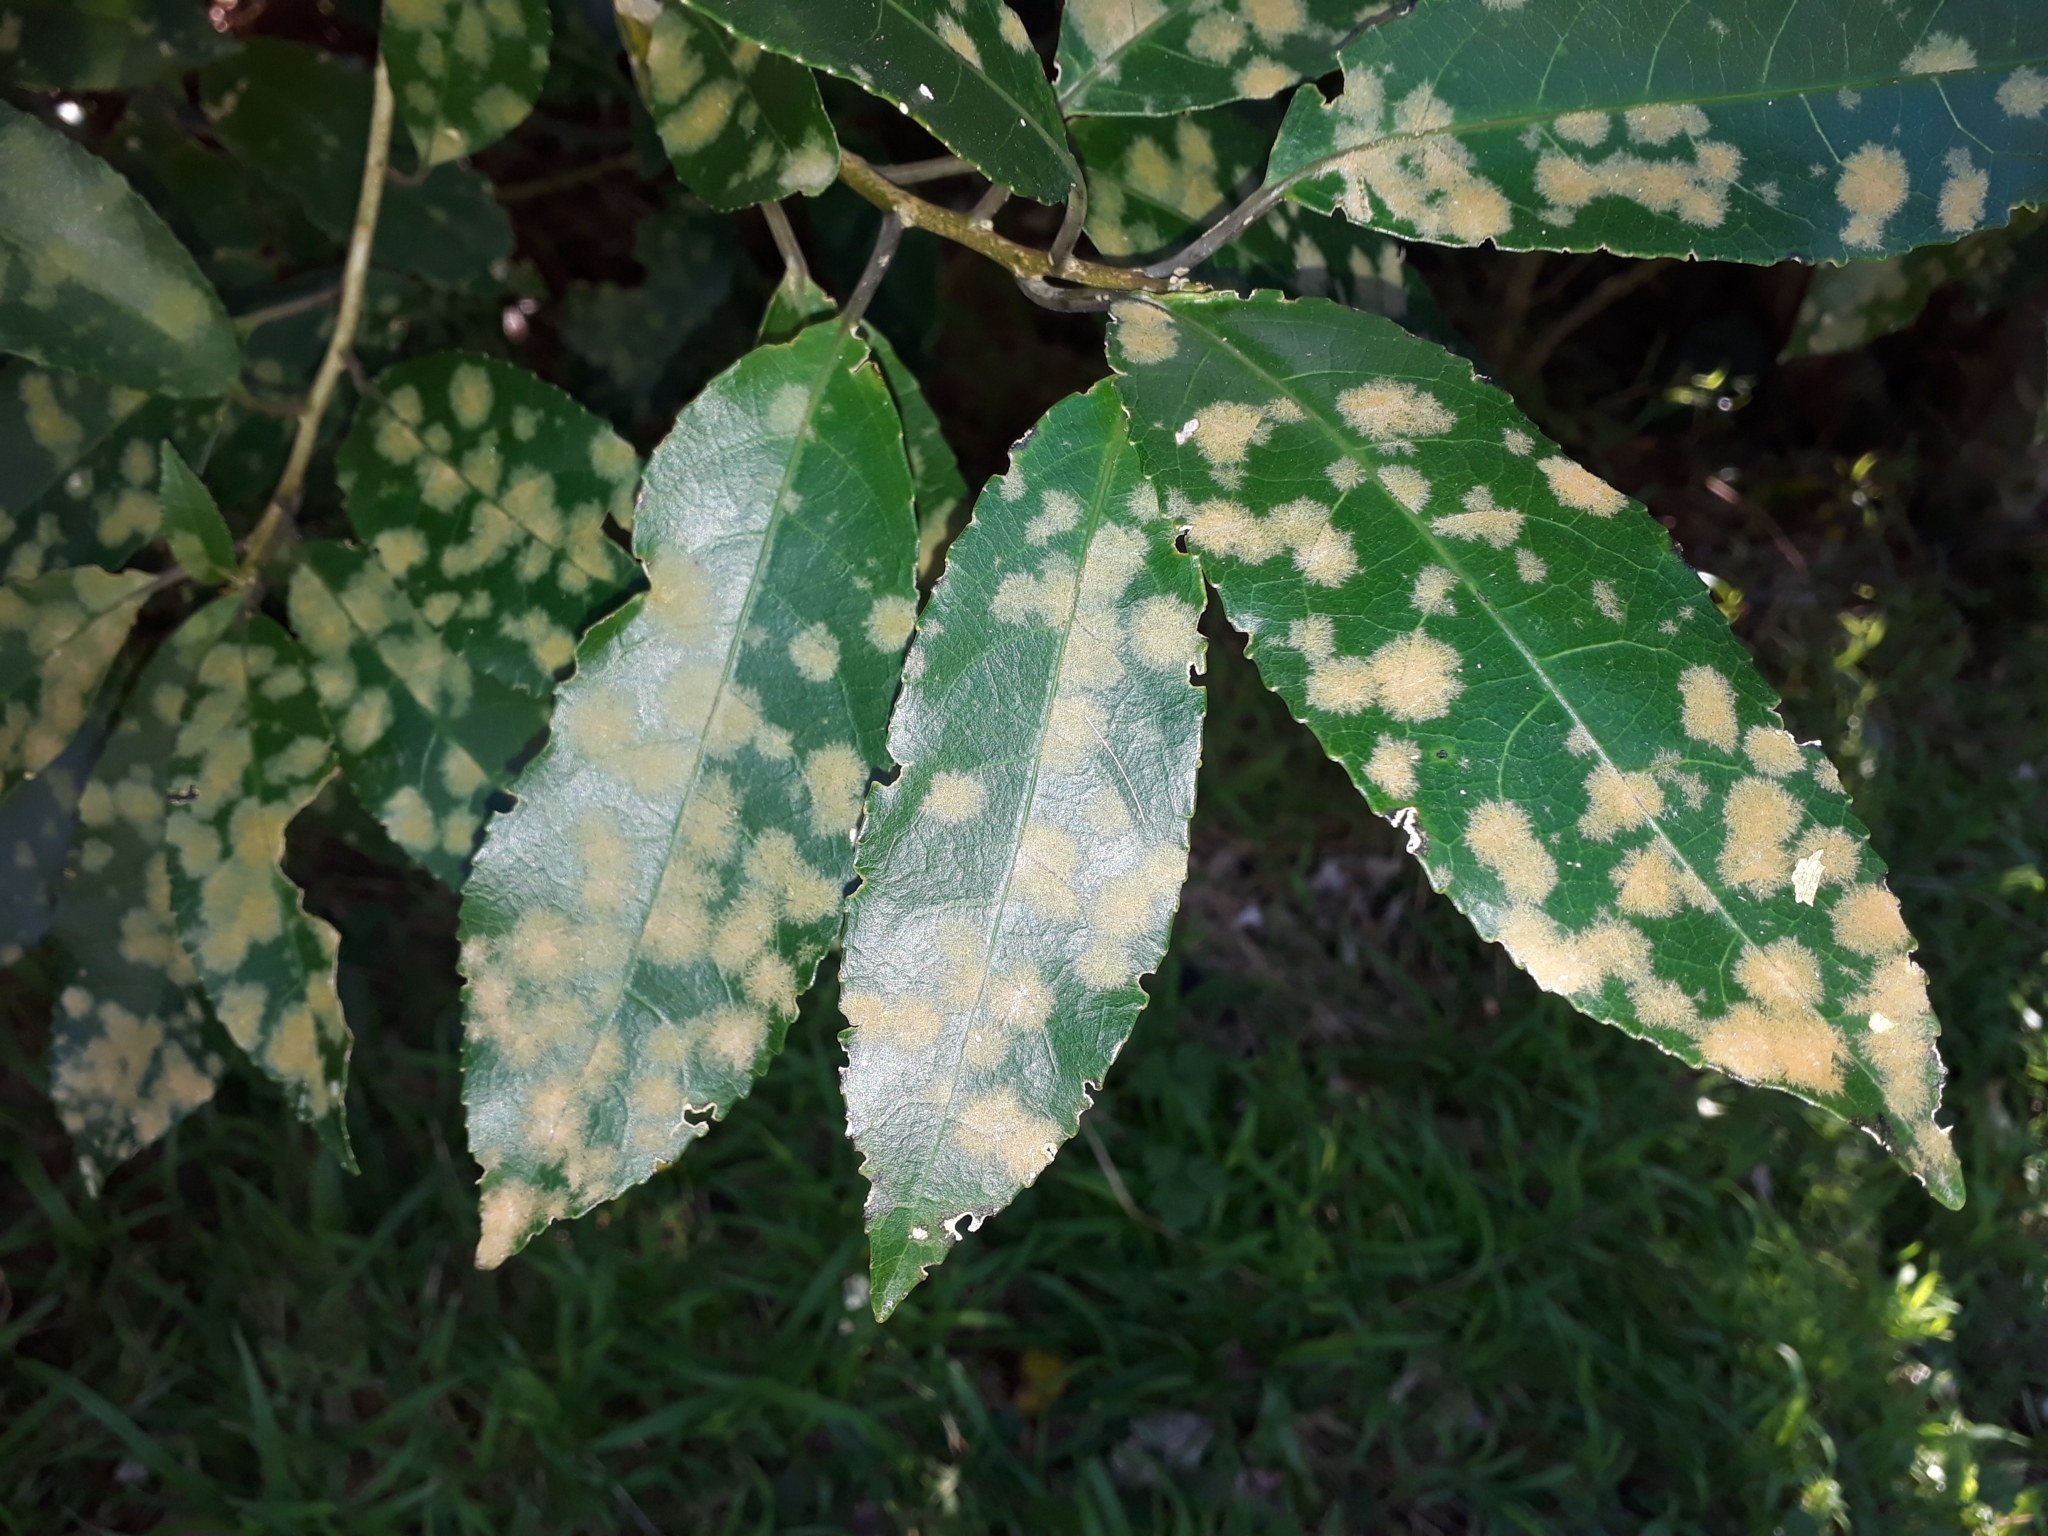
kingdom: Plantae
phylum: Chlorophyta
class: Ulvophyceae
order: Trentepohliales
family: Trentepohliaceae
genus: Cephaleuros
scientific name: Cephaleuros
